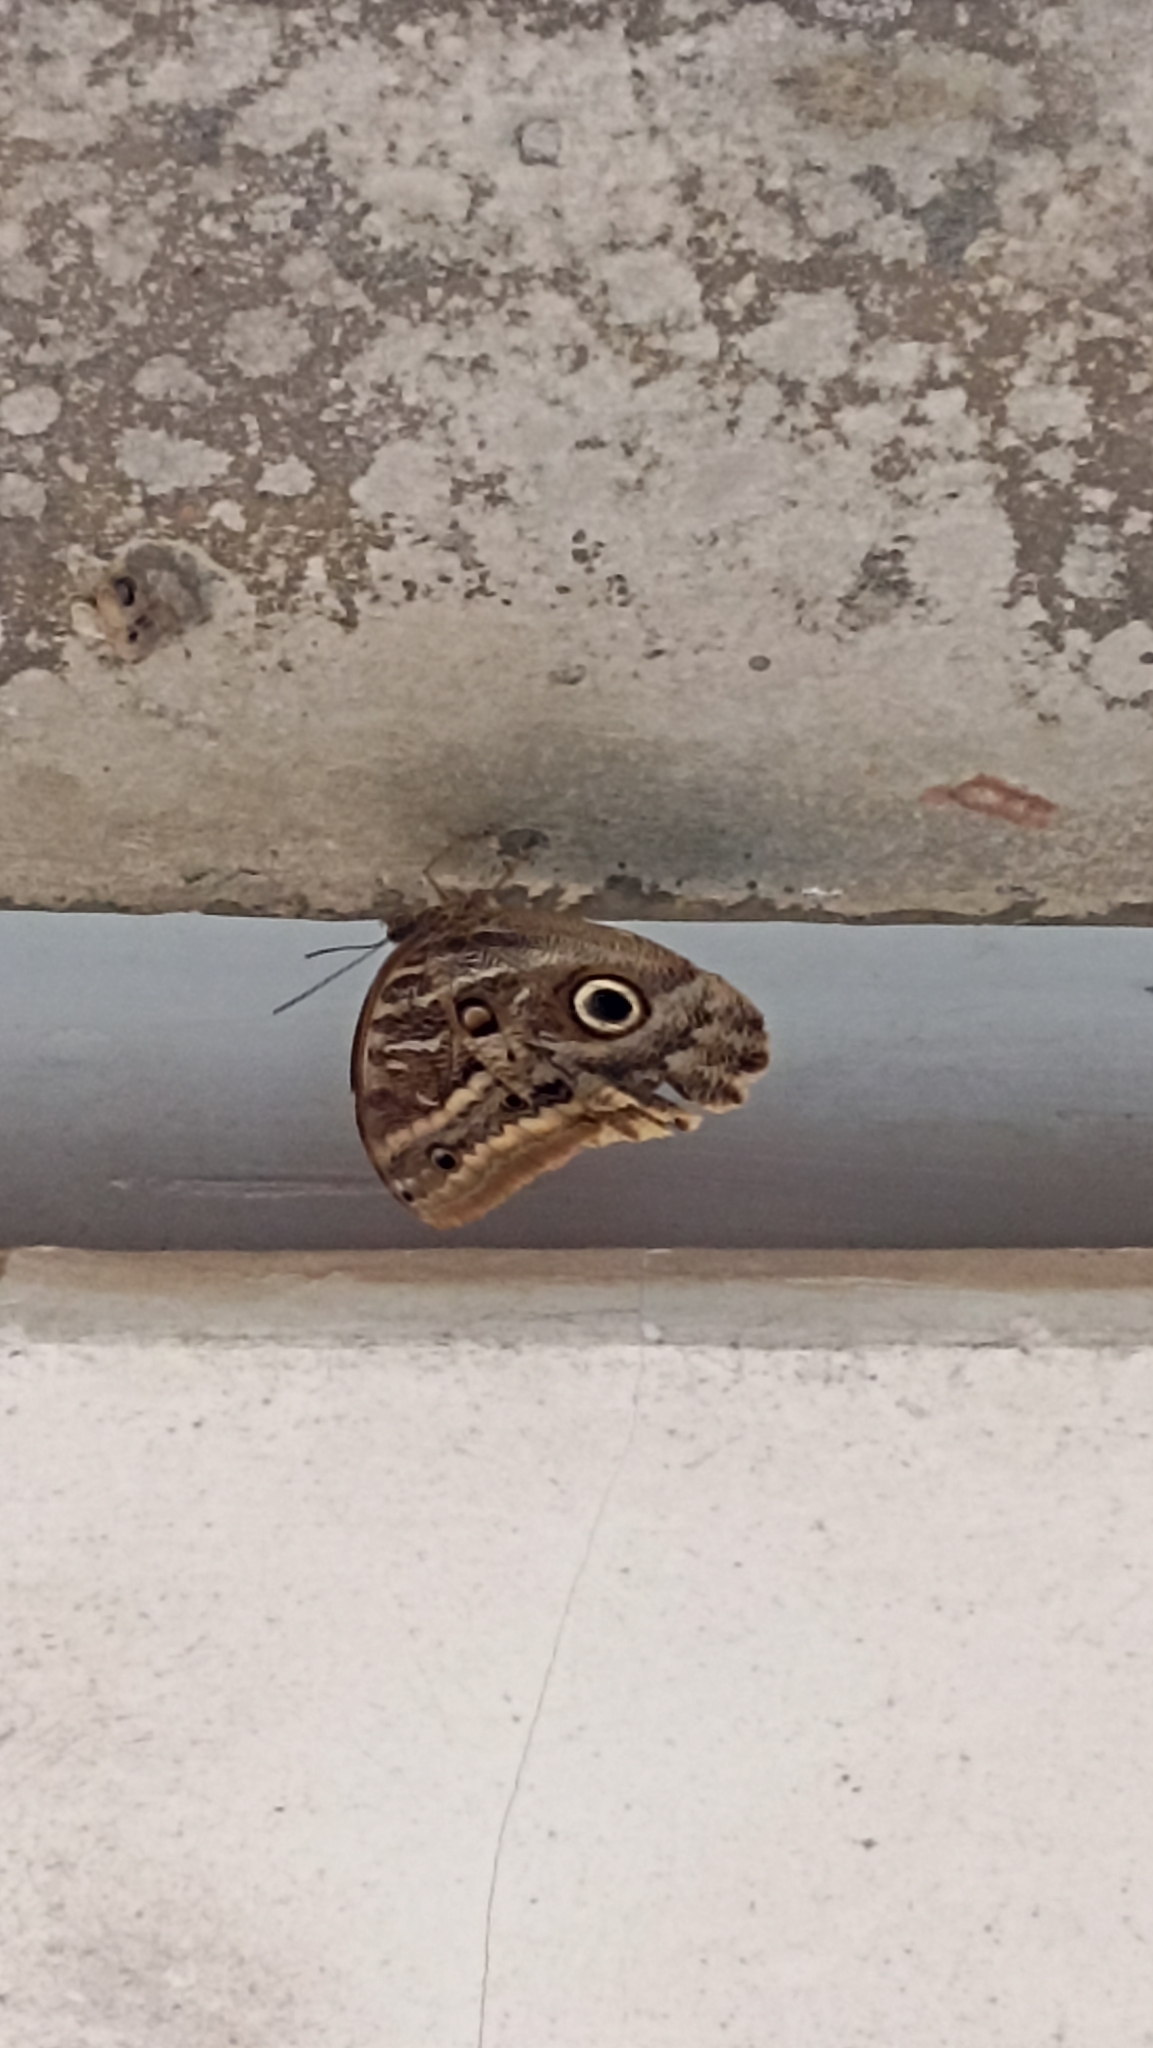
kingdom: Animalia
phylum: Arthropoda
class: Insecta
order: Lepidoptera
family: Nymphalidae
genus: Caligo
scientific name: Caligo illioneus
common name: Dusky owl-butterfly
